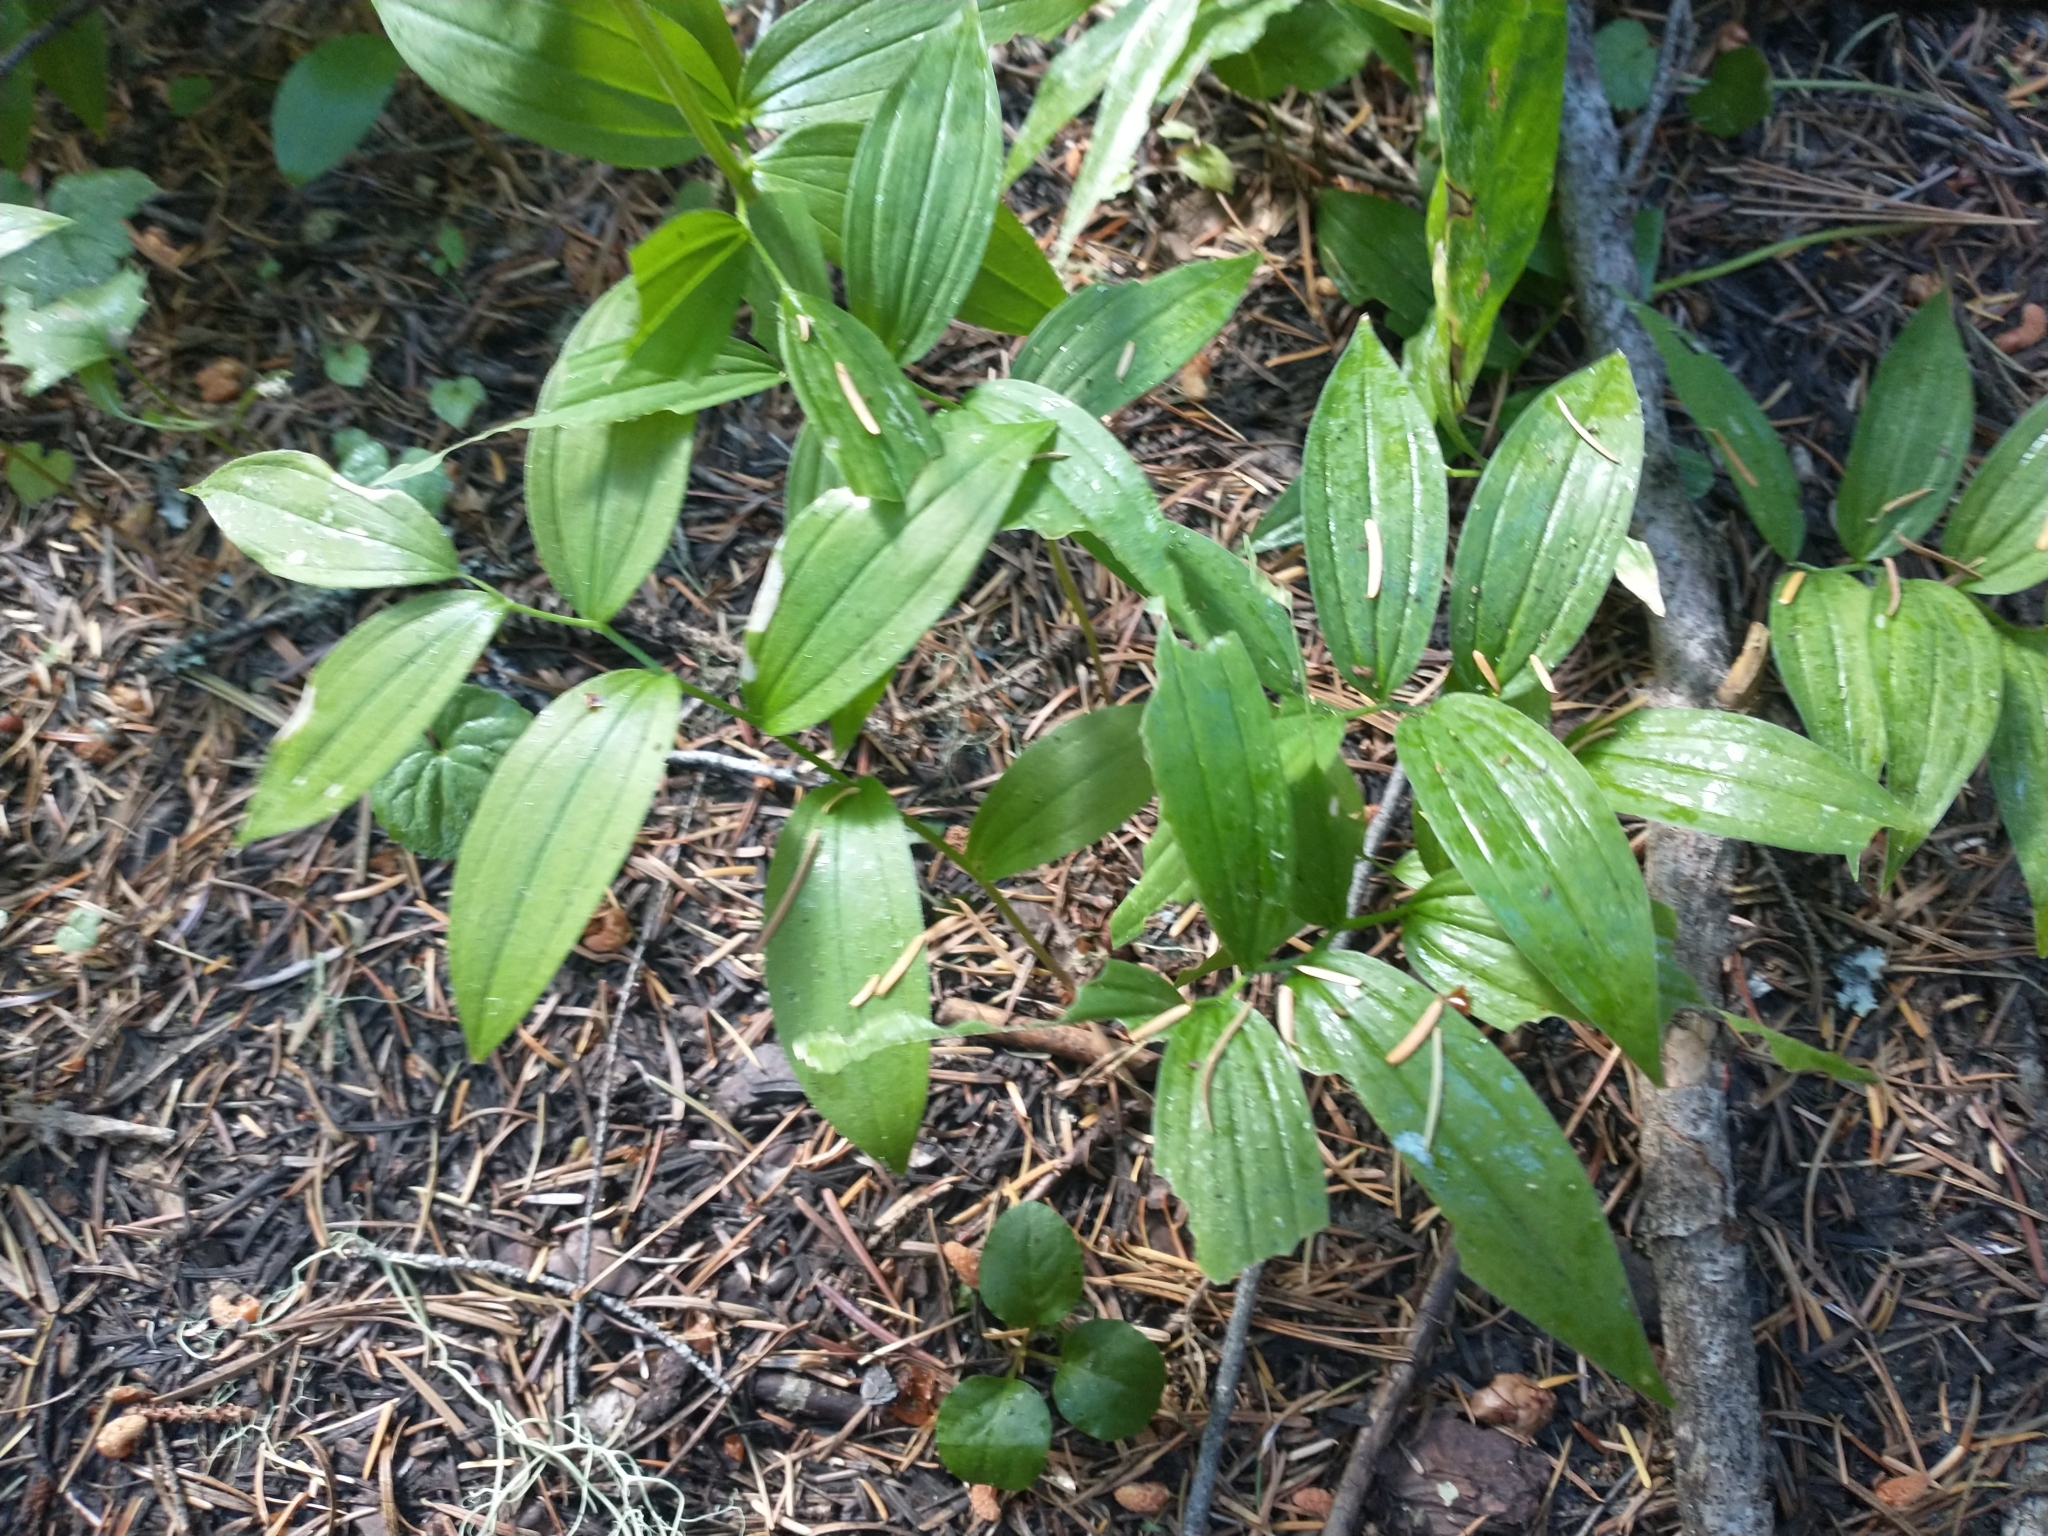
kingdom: Plantae
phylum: Tracheophyta
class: Liliopsida
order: Asparagales
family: Asparagaceae
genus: Maianthemum
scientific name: Maianthemum stellatum
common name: Little false solomon's seal
